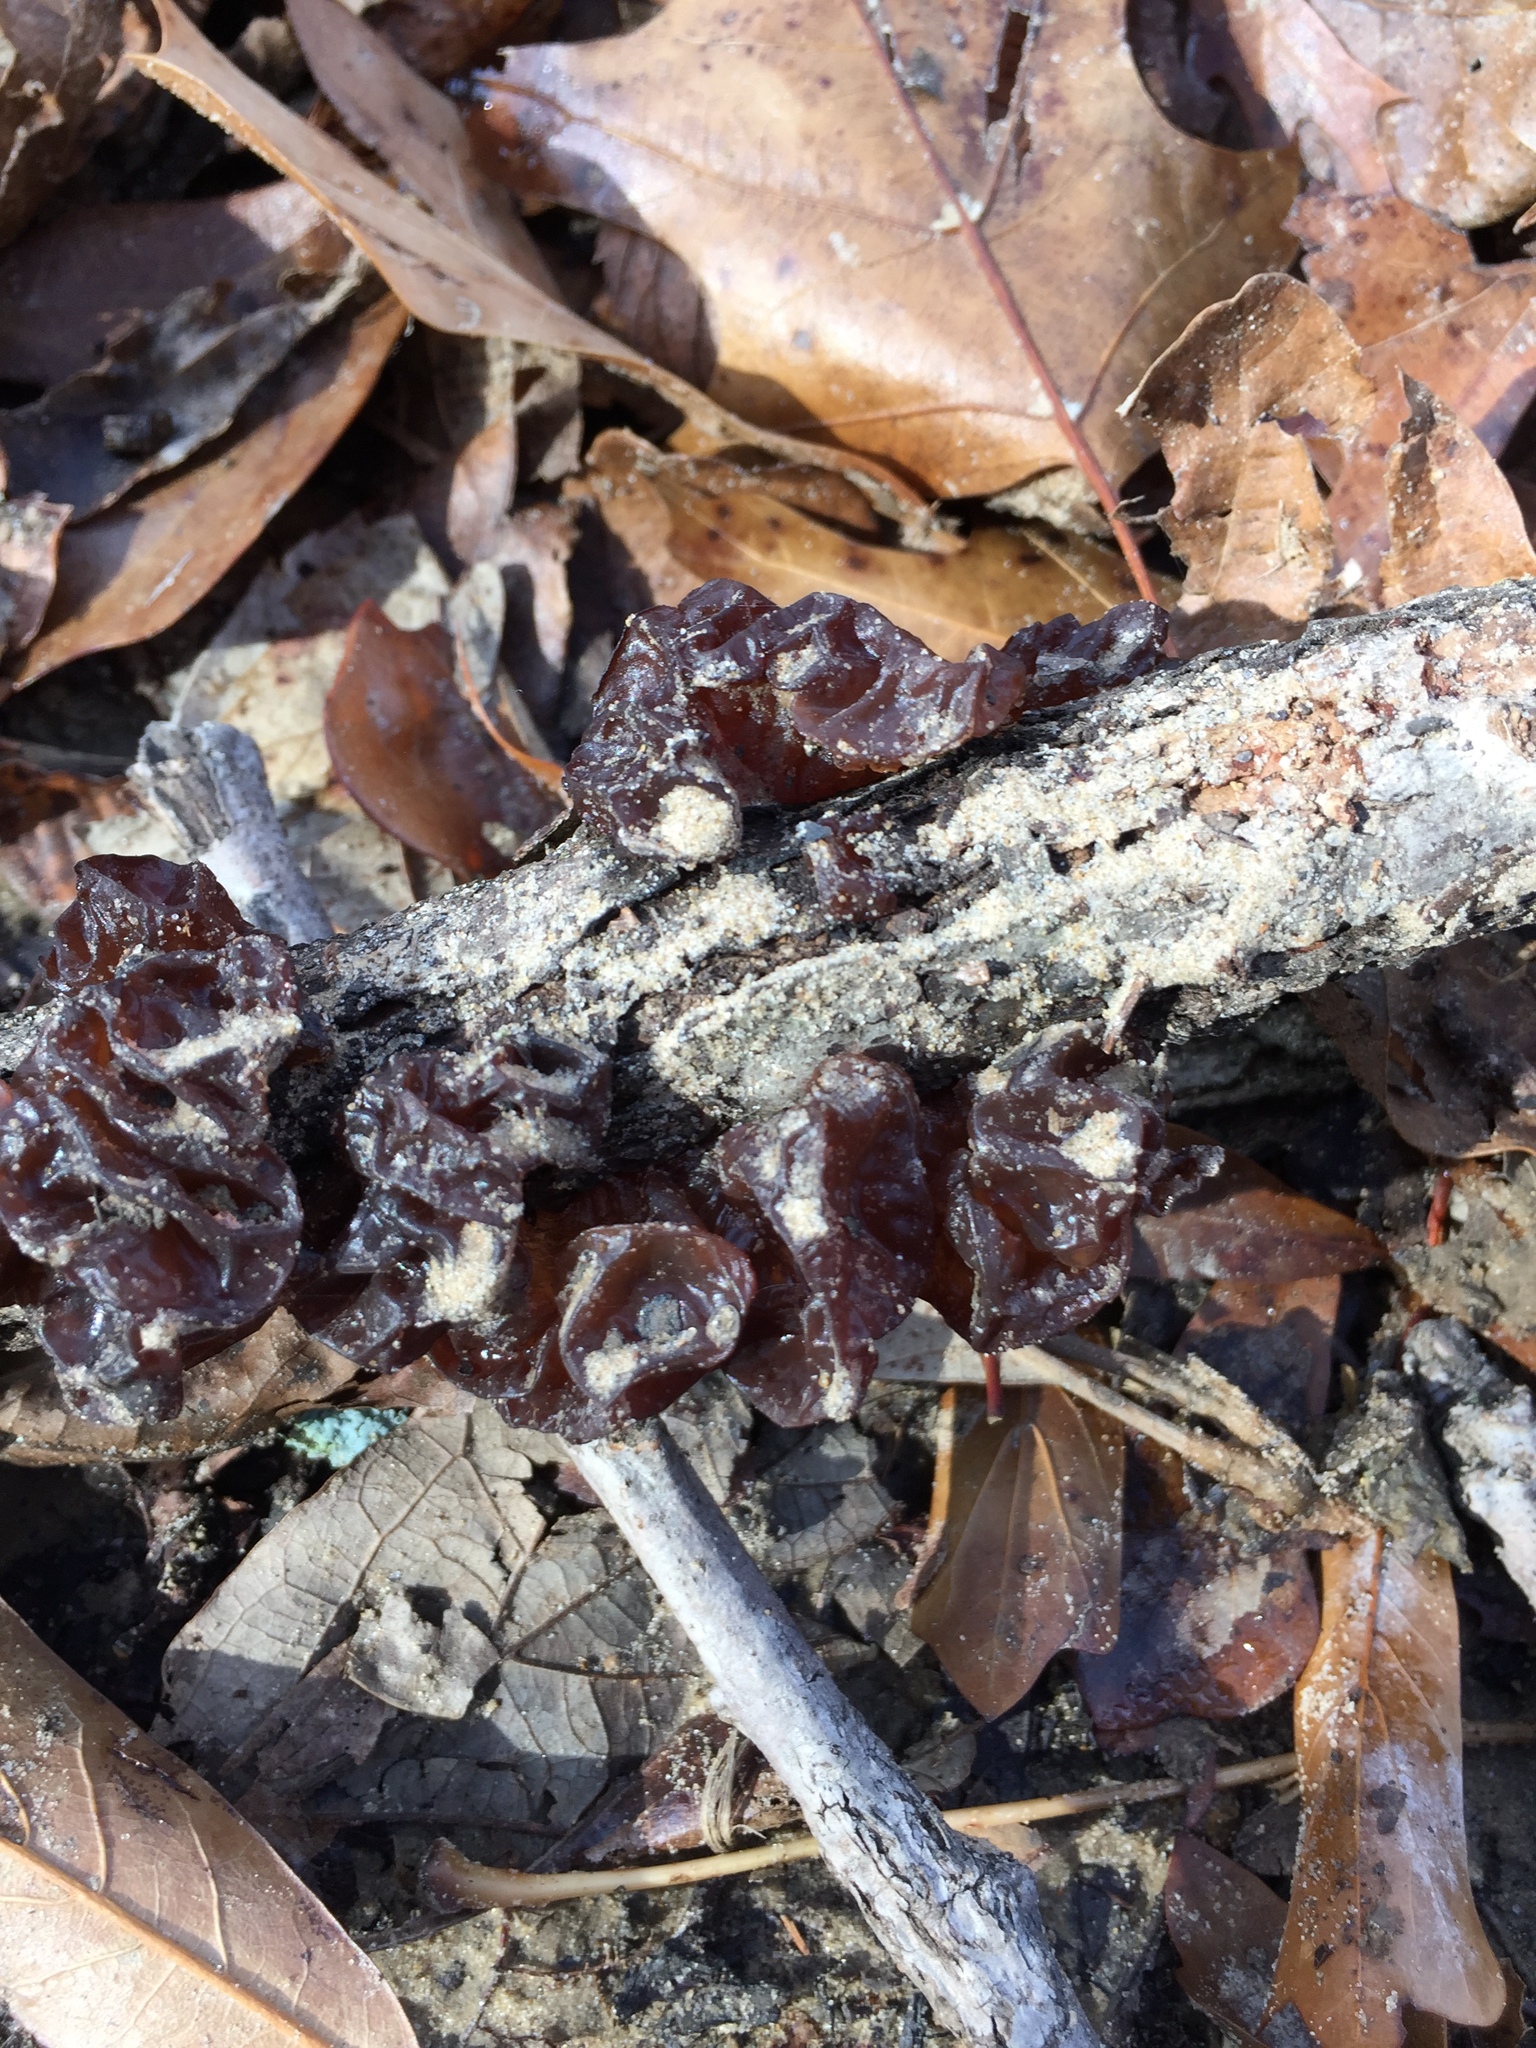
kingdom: Fungi
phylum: Basidiomycota
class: Agaricomycetes
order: Auriculariales
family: Auriculariaceae
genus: Exidia
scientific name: Exidia
